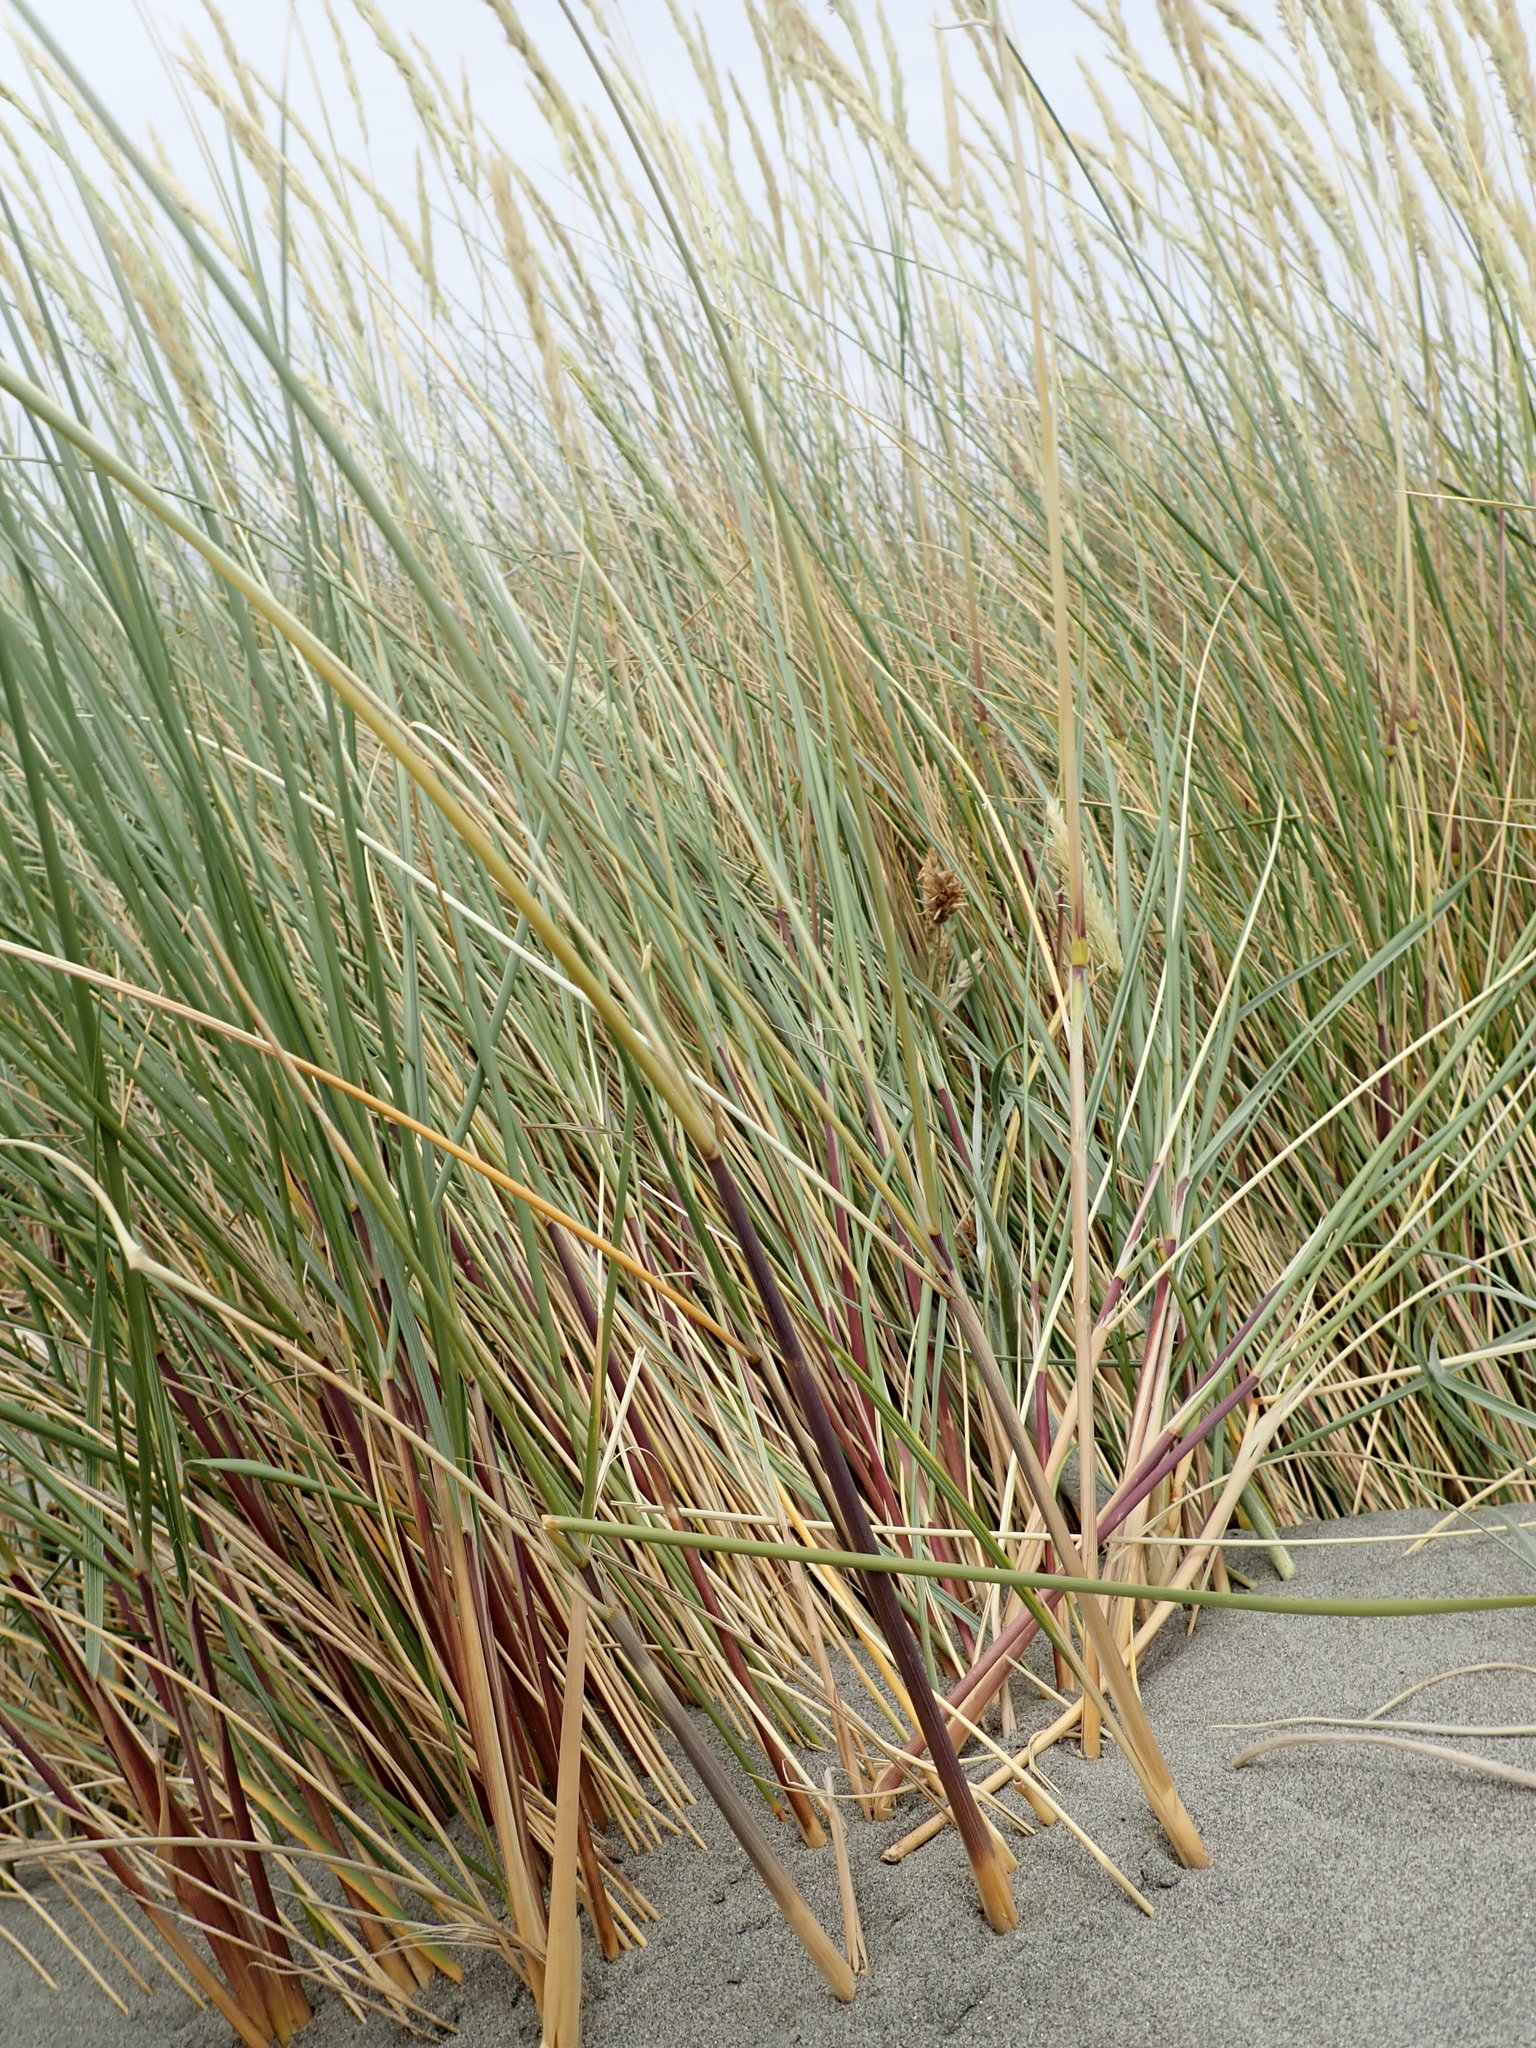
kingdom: Plantae
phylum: Tracheophyta
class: Liliopsida
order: Poales
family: Poaceae
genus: Calamagrostis
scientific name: Calamagrostis arenaria
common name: European beachgrass
